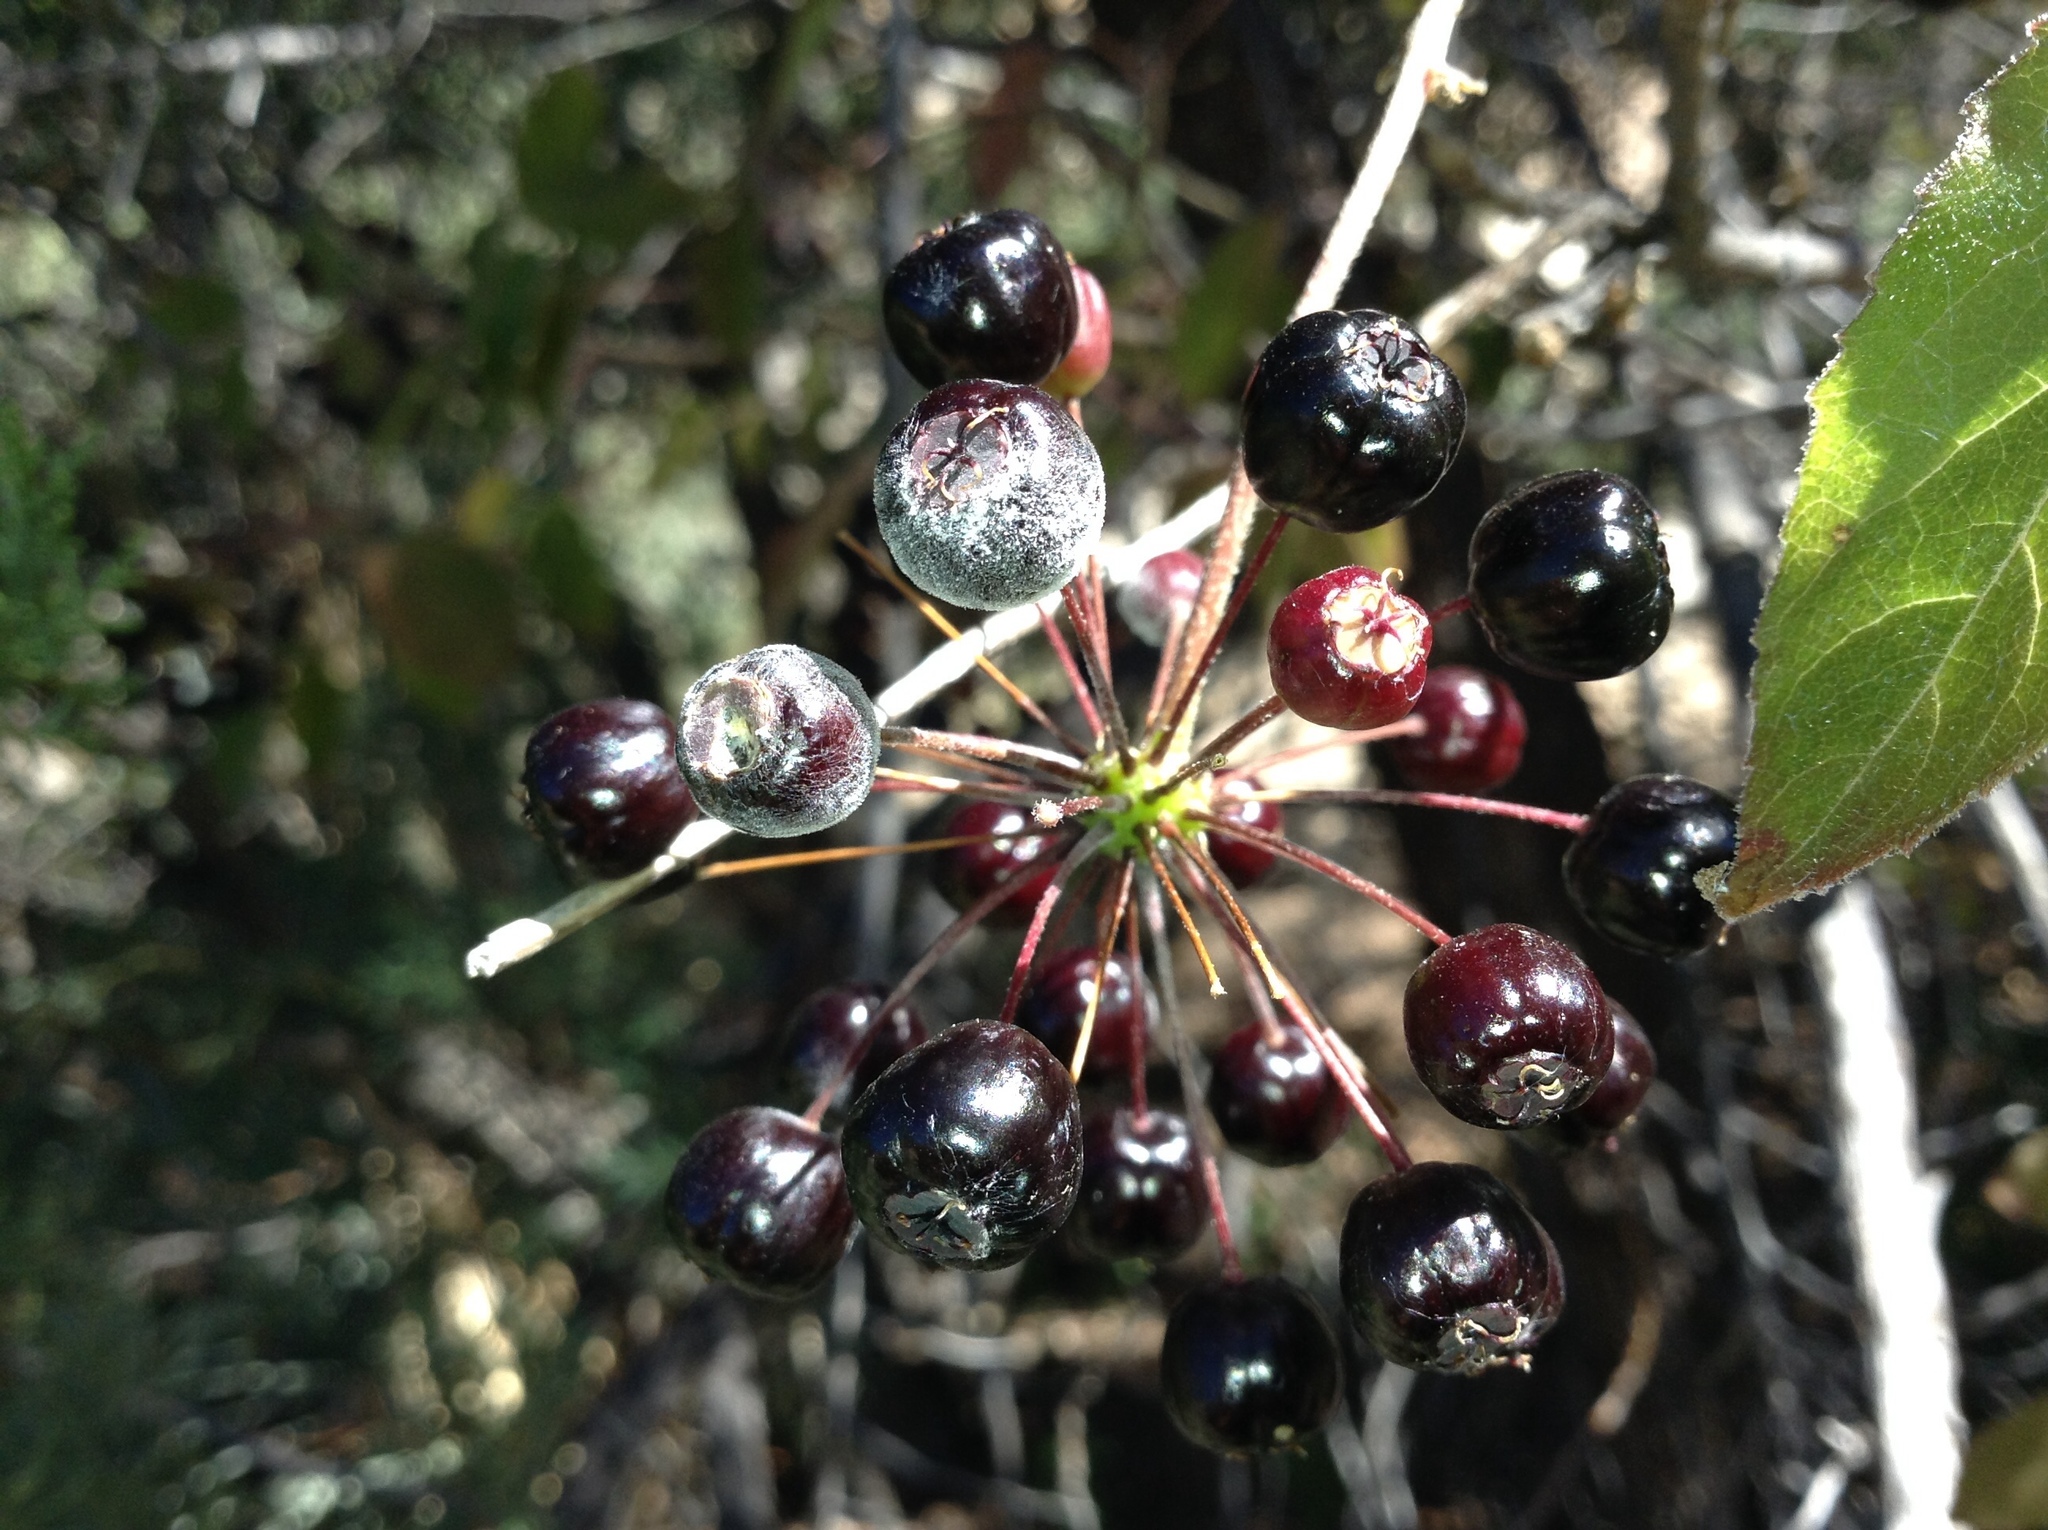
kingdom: Plantae
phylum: Tracheophyta
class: Magnoliopsida
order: Apiales
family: Araliaceae
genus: Aralia
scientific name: Aralia humilis
